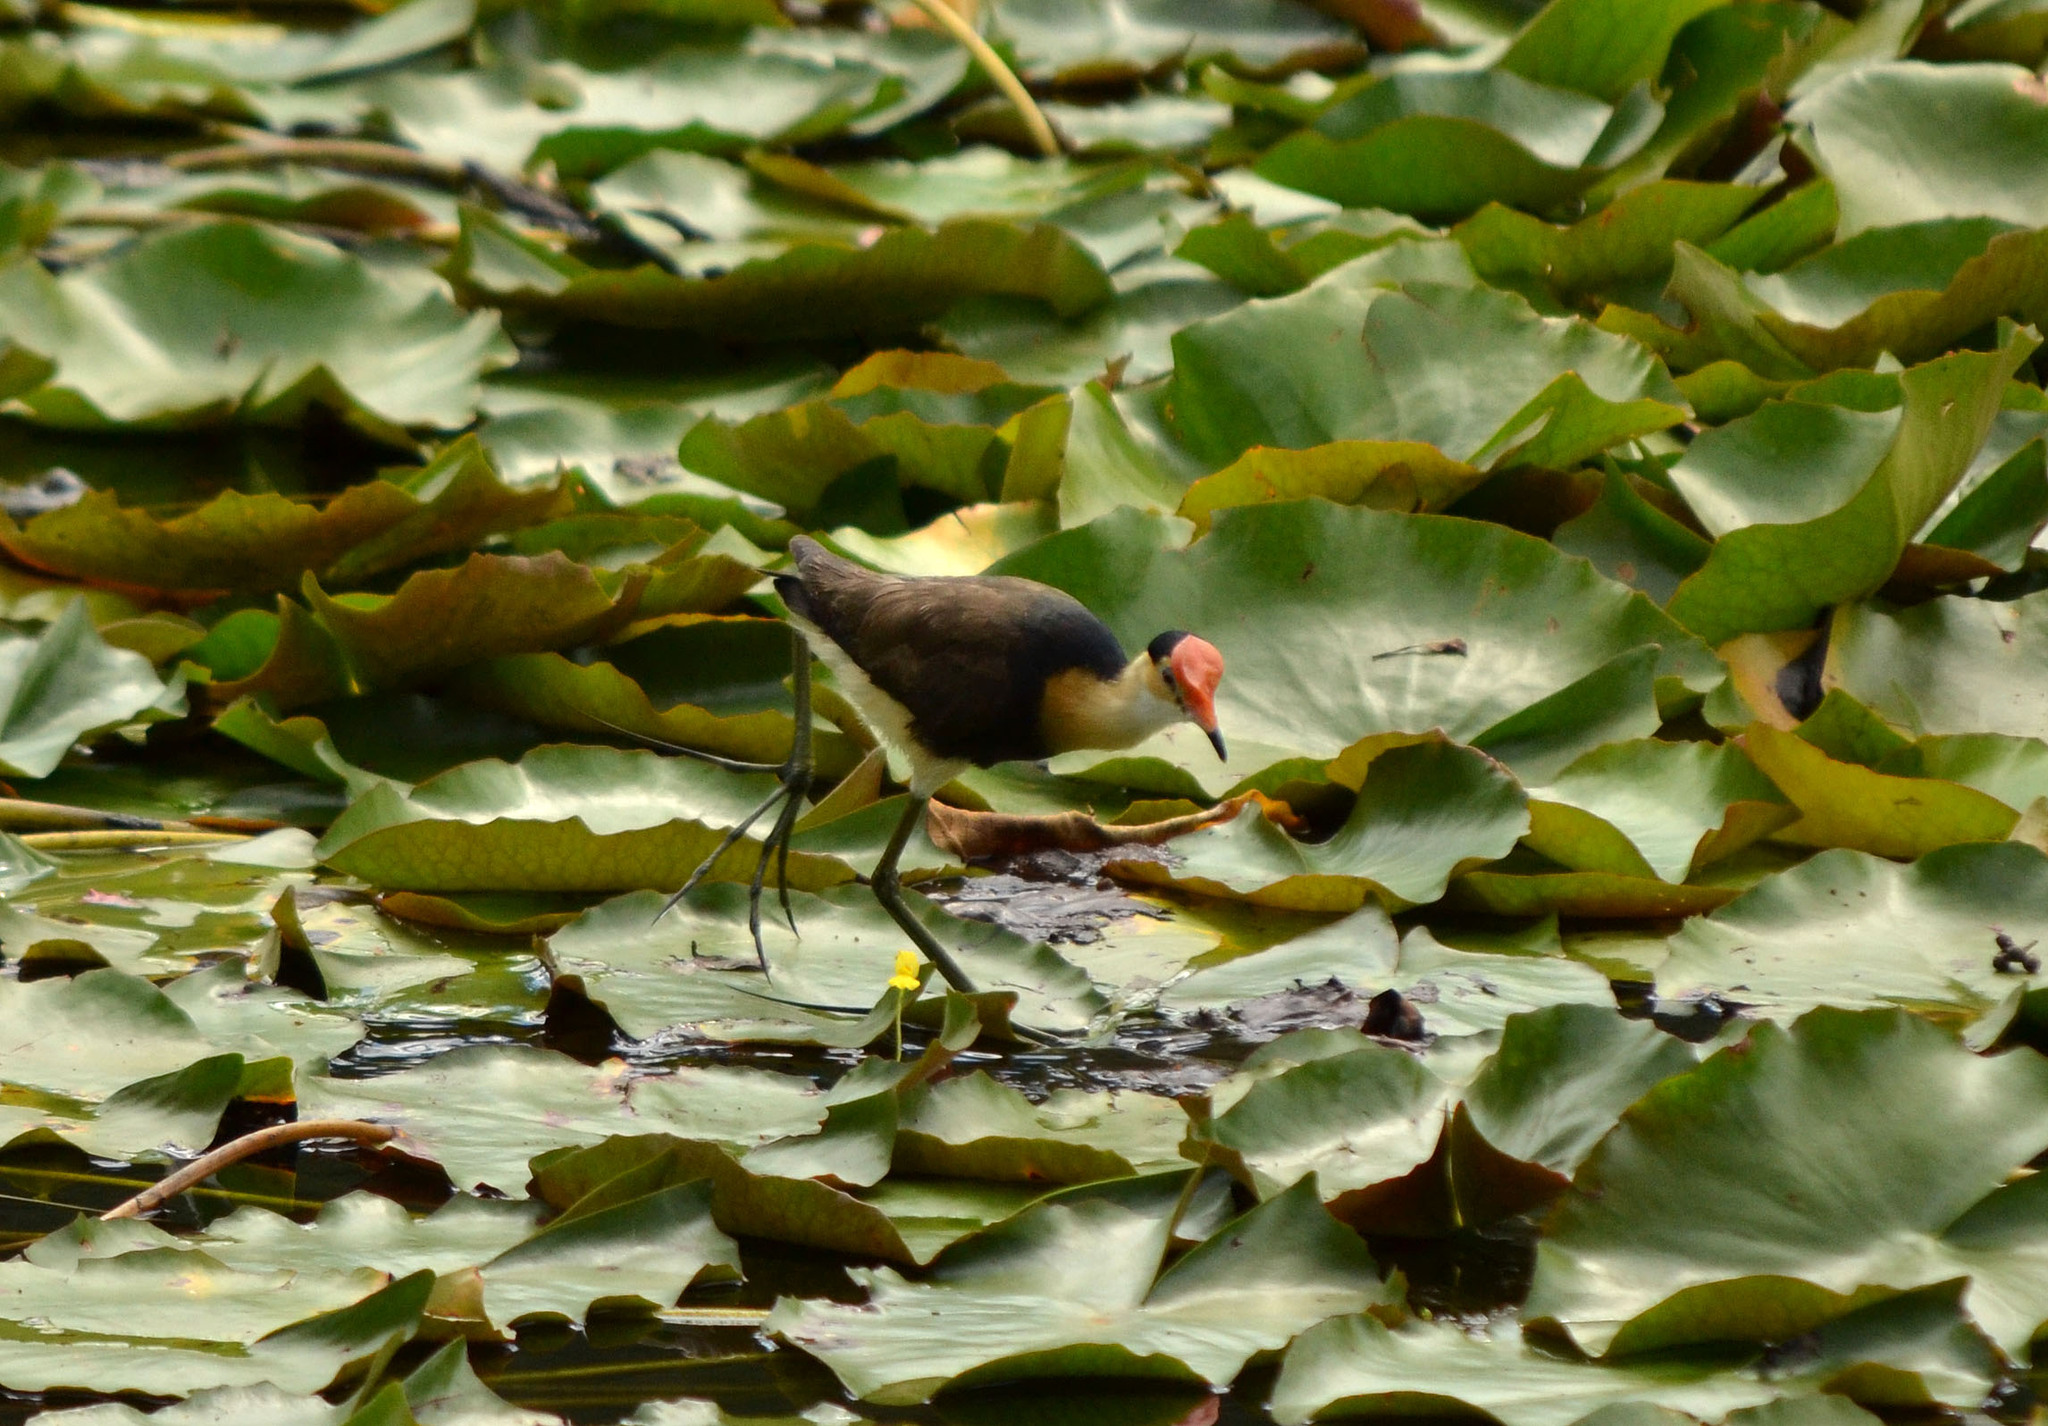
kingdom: Animalia
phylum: Chordata
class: Aves
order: Charadriiformes
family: Jacanidae
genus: Irediparra
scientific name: Irediparra gallinacea
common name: Comb-crested jacana
